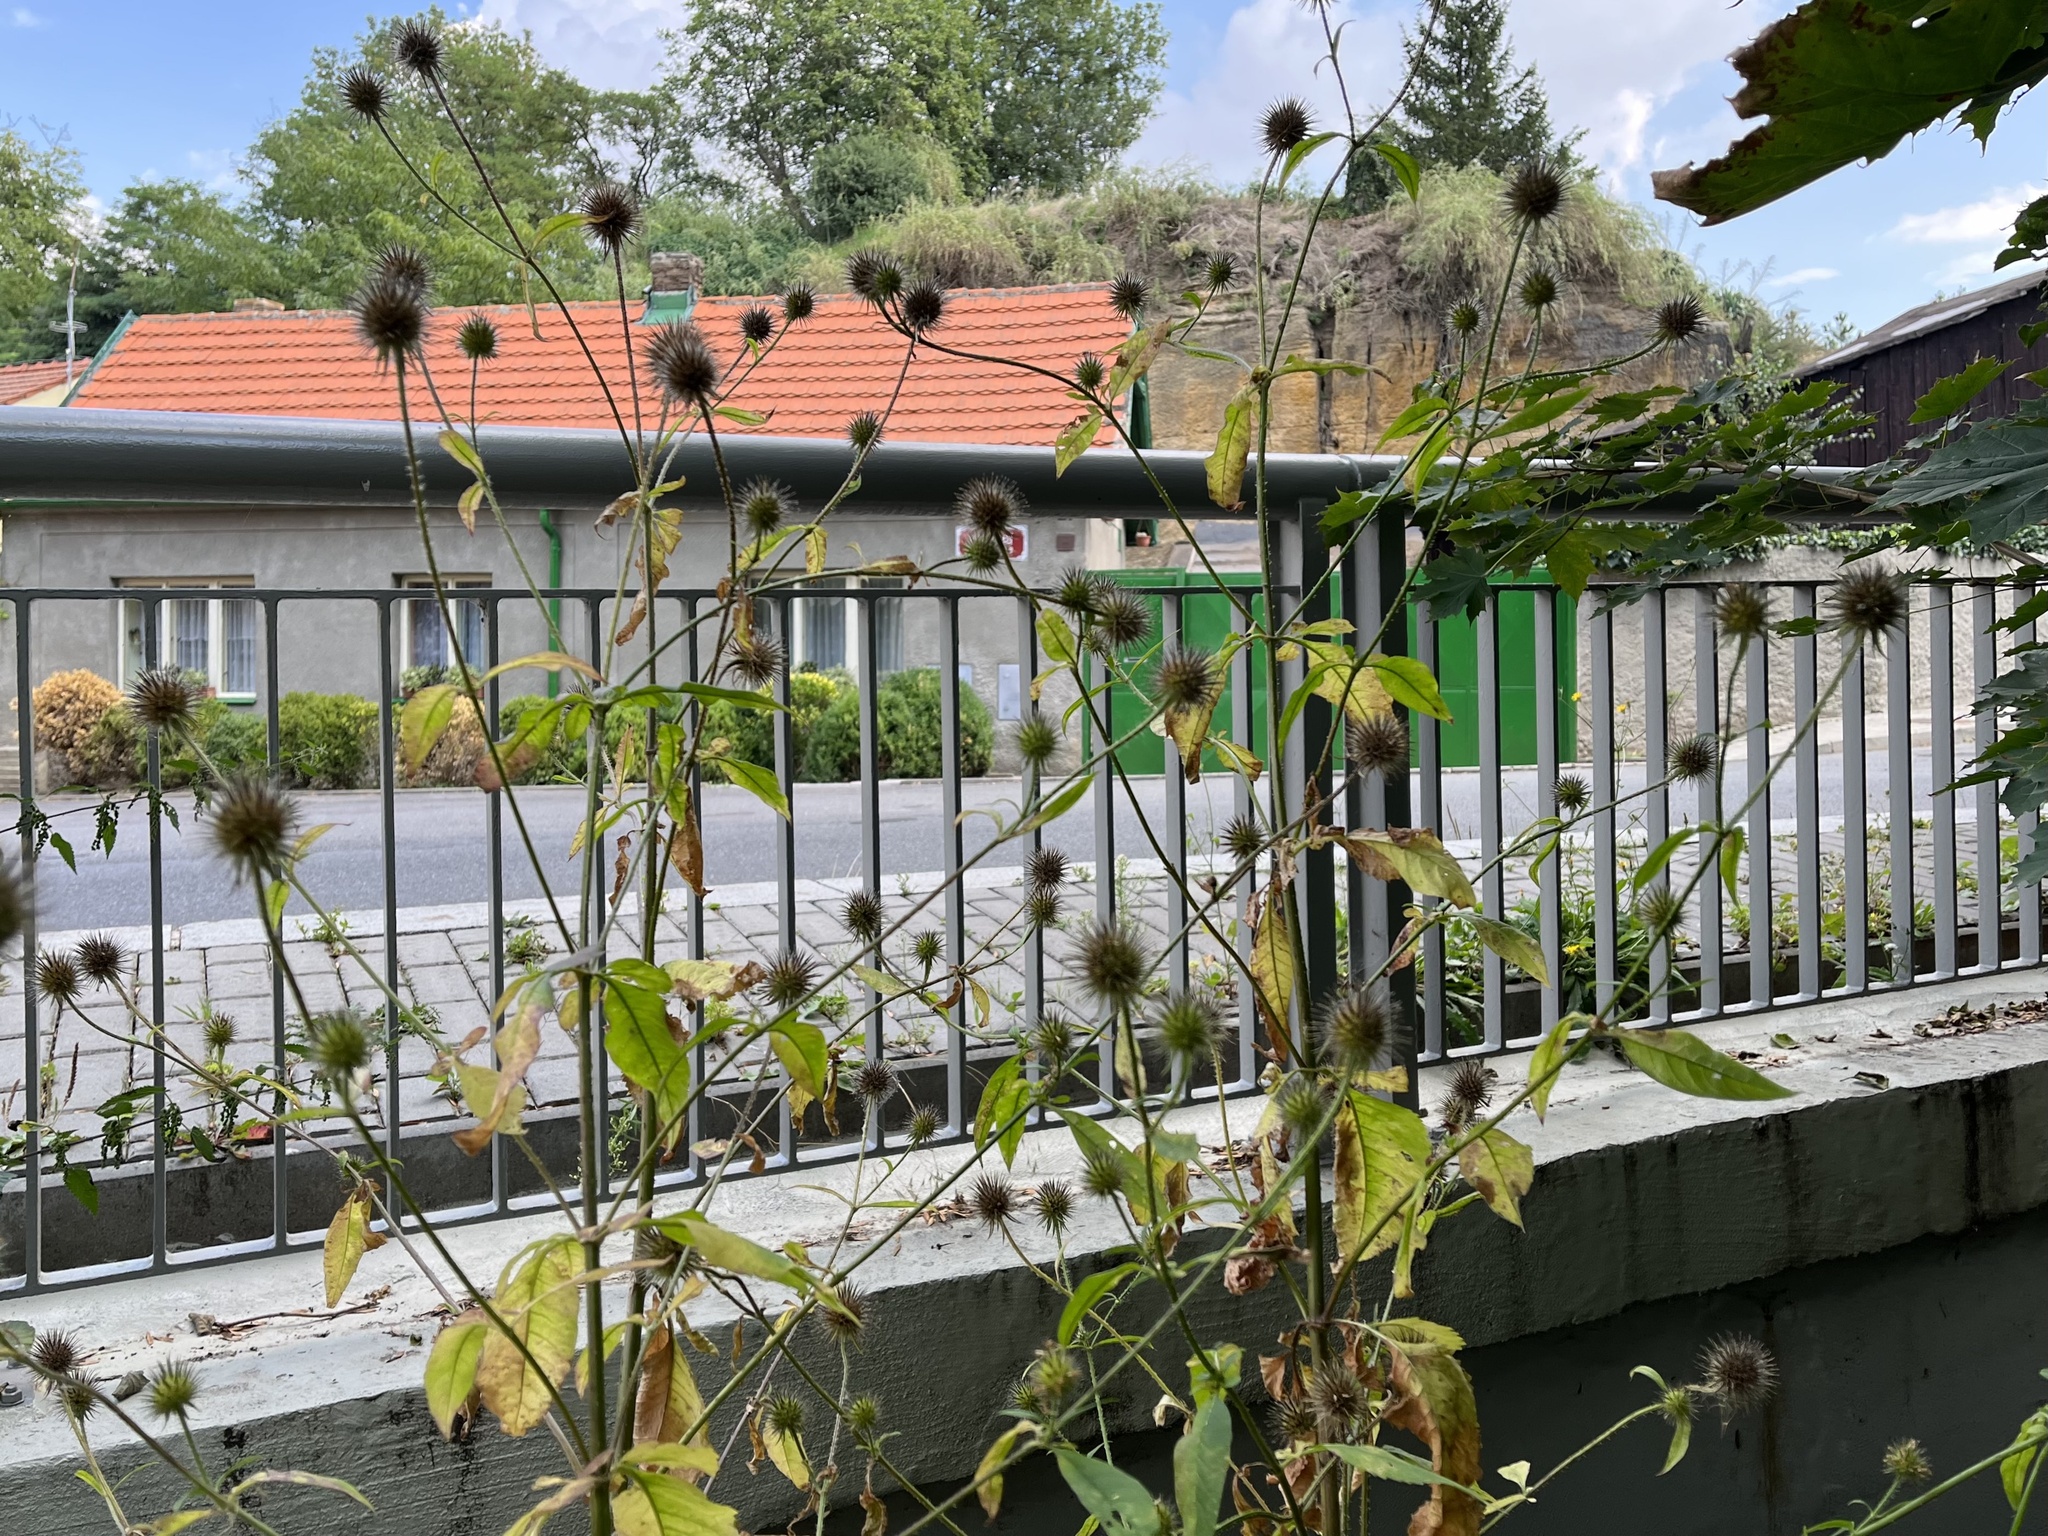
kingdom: Plantae
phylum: Tracheophyta
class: Magnoliopsida
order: Dipsacales
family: Caprifoliaceae
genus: Dipsacus
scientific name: Dipsacus strigosus
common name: Yellow-flowered teasel
